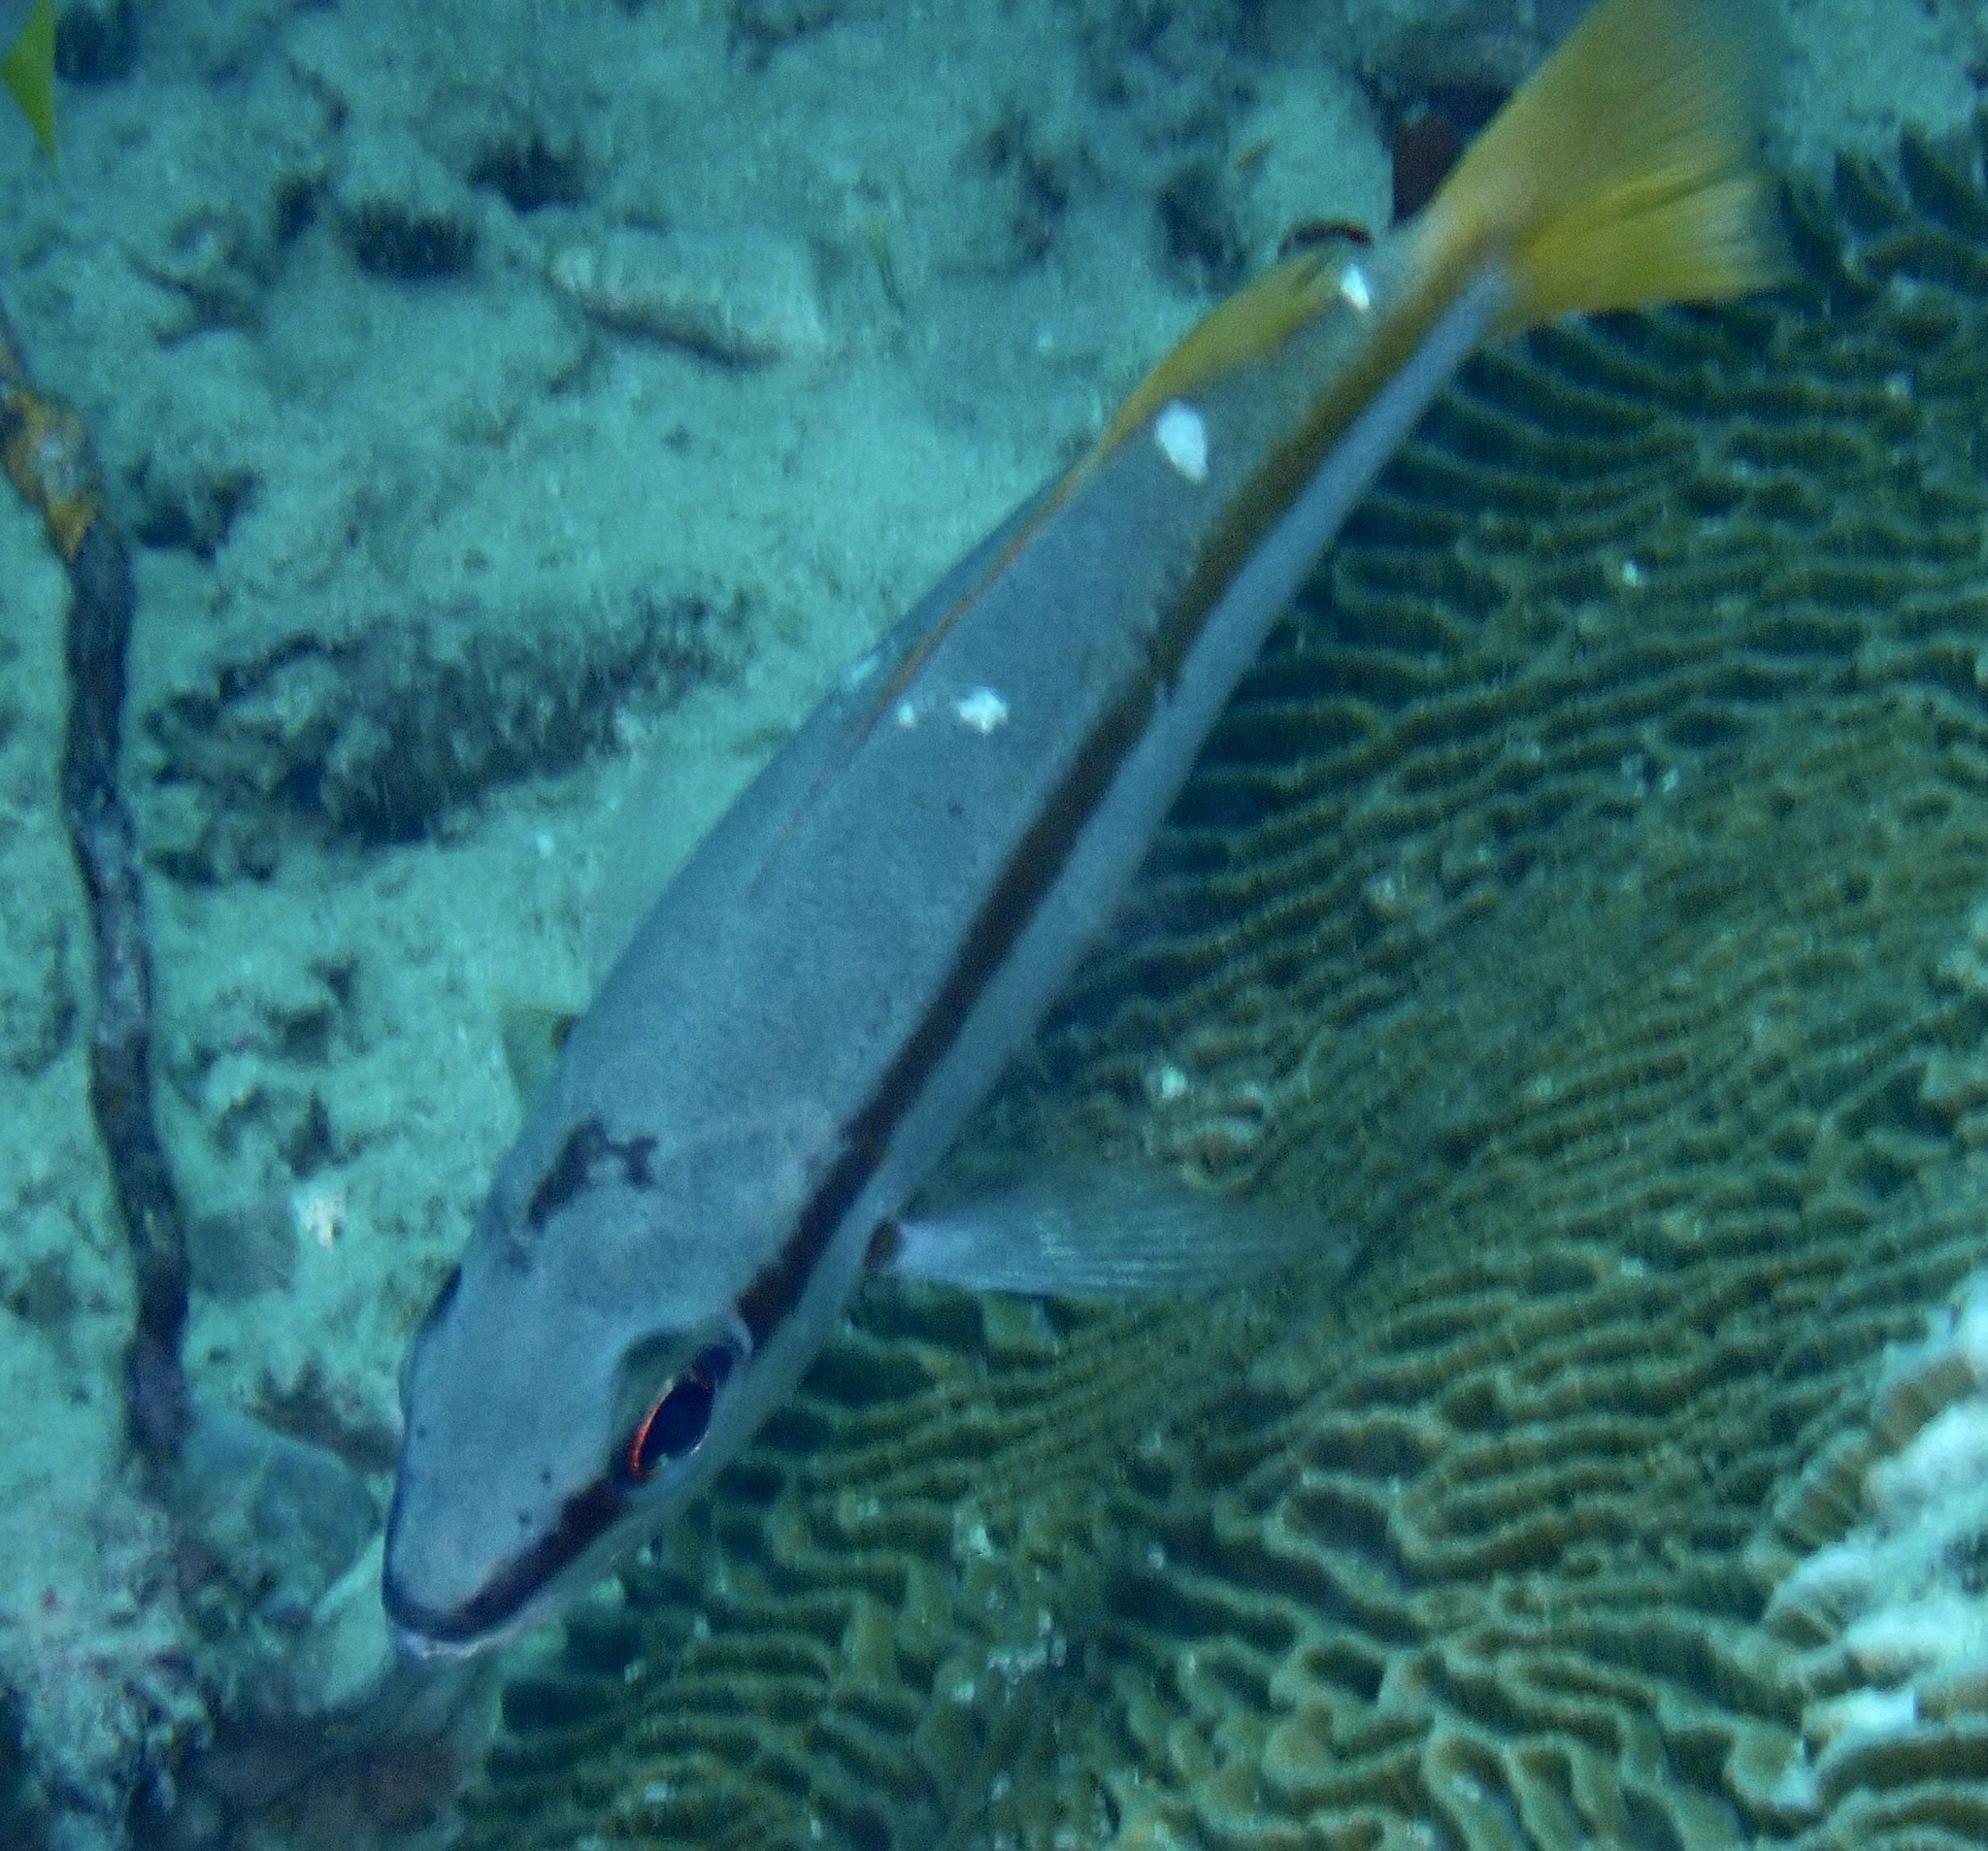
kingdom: Animalia
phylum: Chordata
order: Perciformes
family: Lutjanidae
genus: Lutjanus
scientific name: Lutjanus biguttatus
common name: Two-spot snapper
